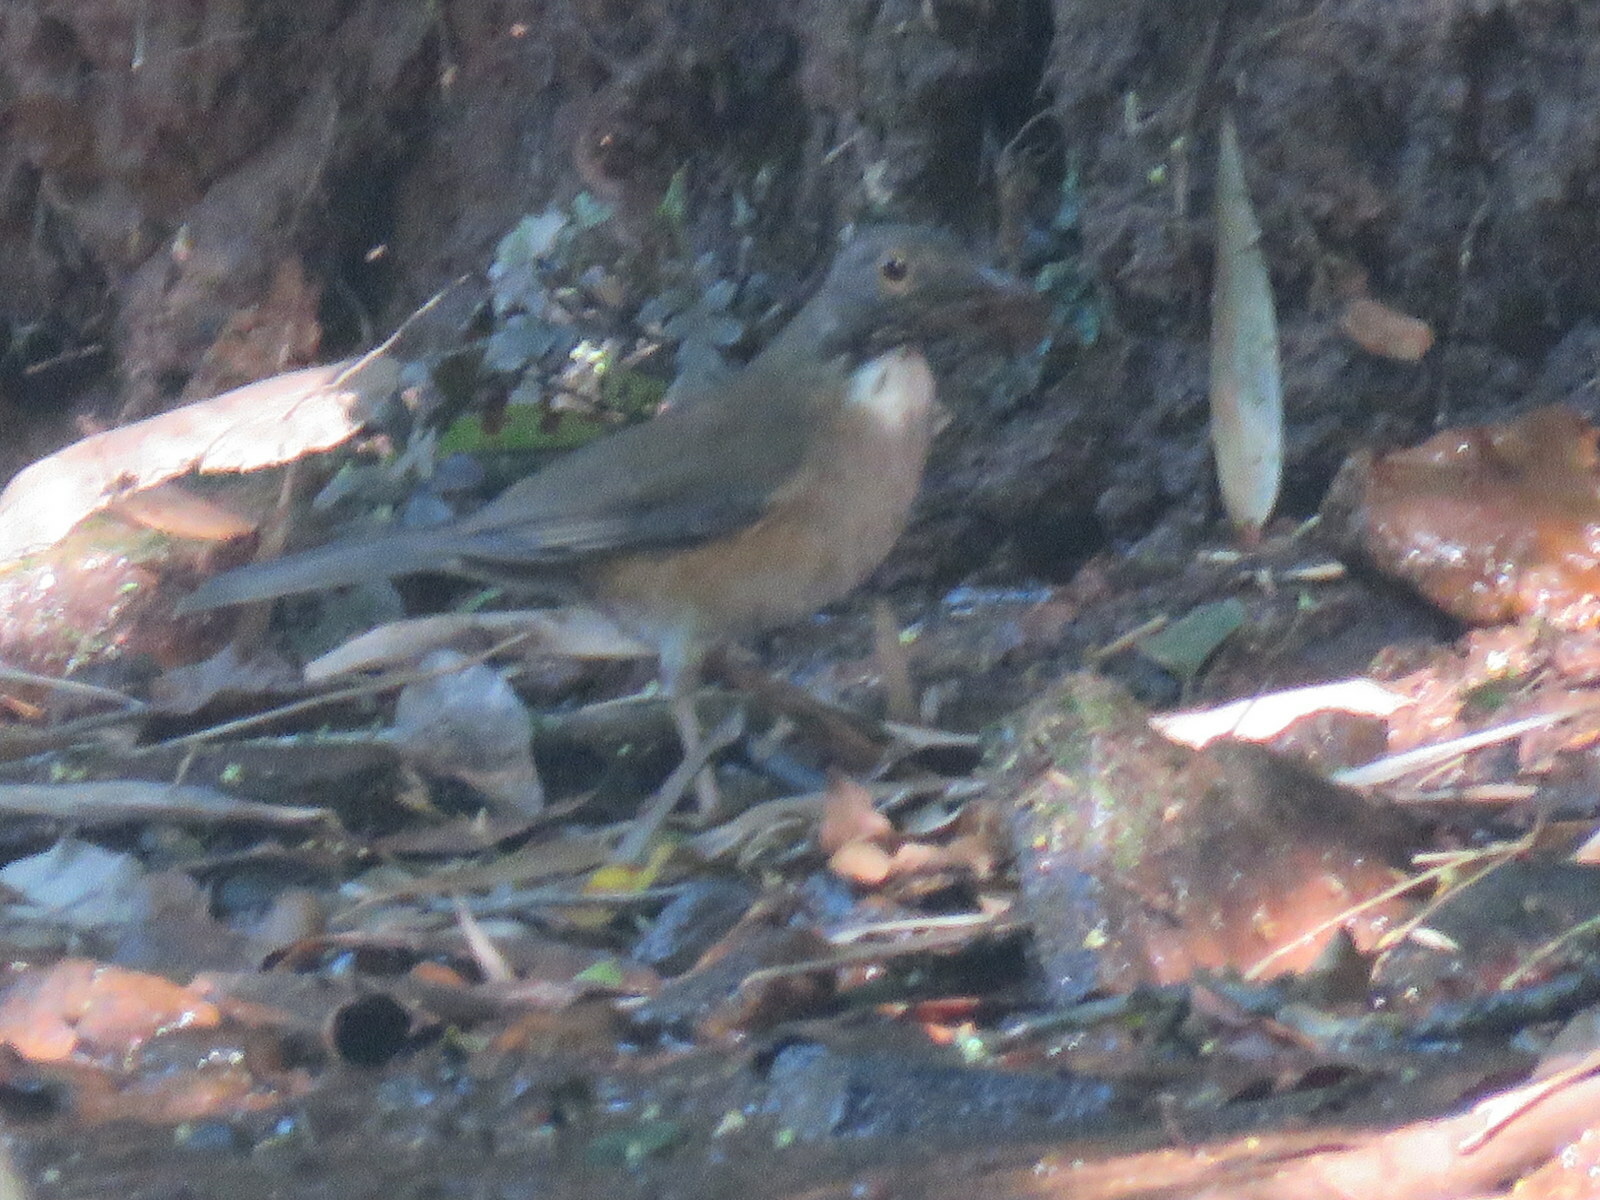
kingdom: Animalia
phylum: Chordata
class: Aves
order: Passeriformes
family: Turdidae
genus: Turdus
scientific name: Turdus albicollis
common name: White-necked thrush
